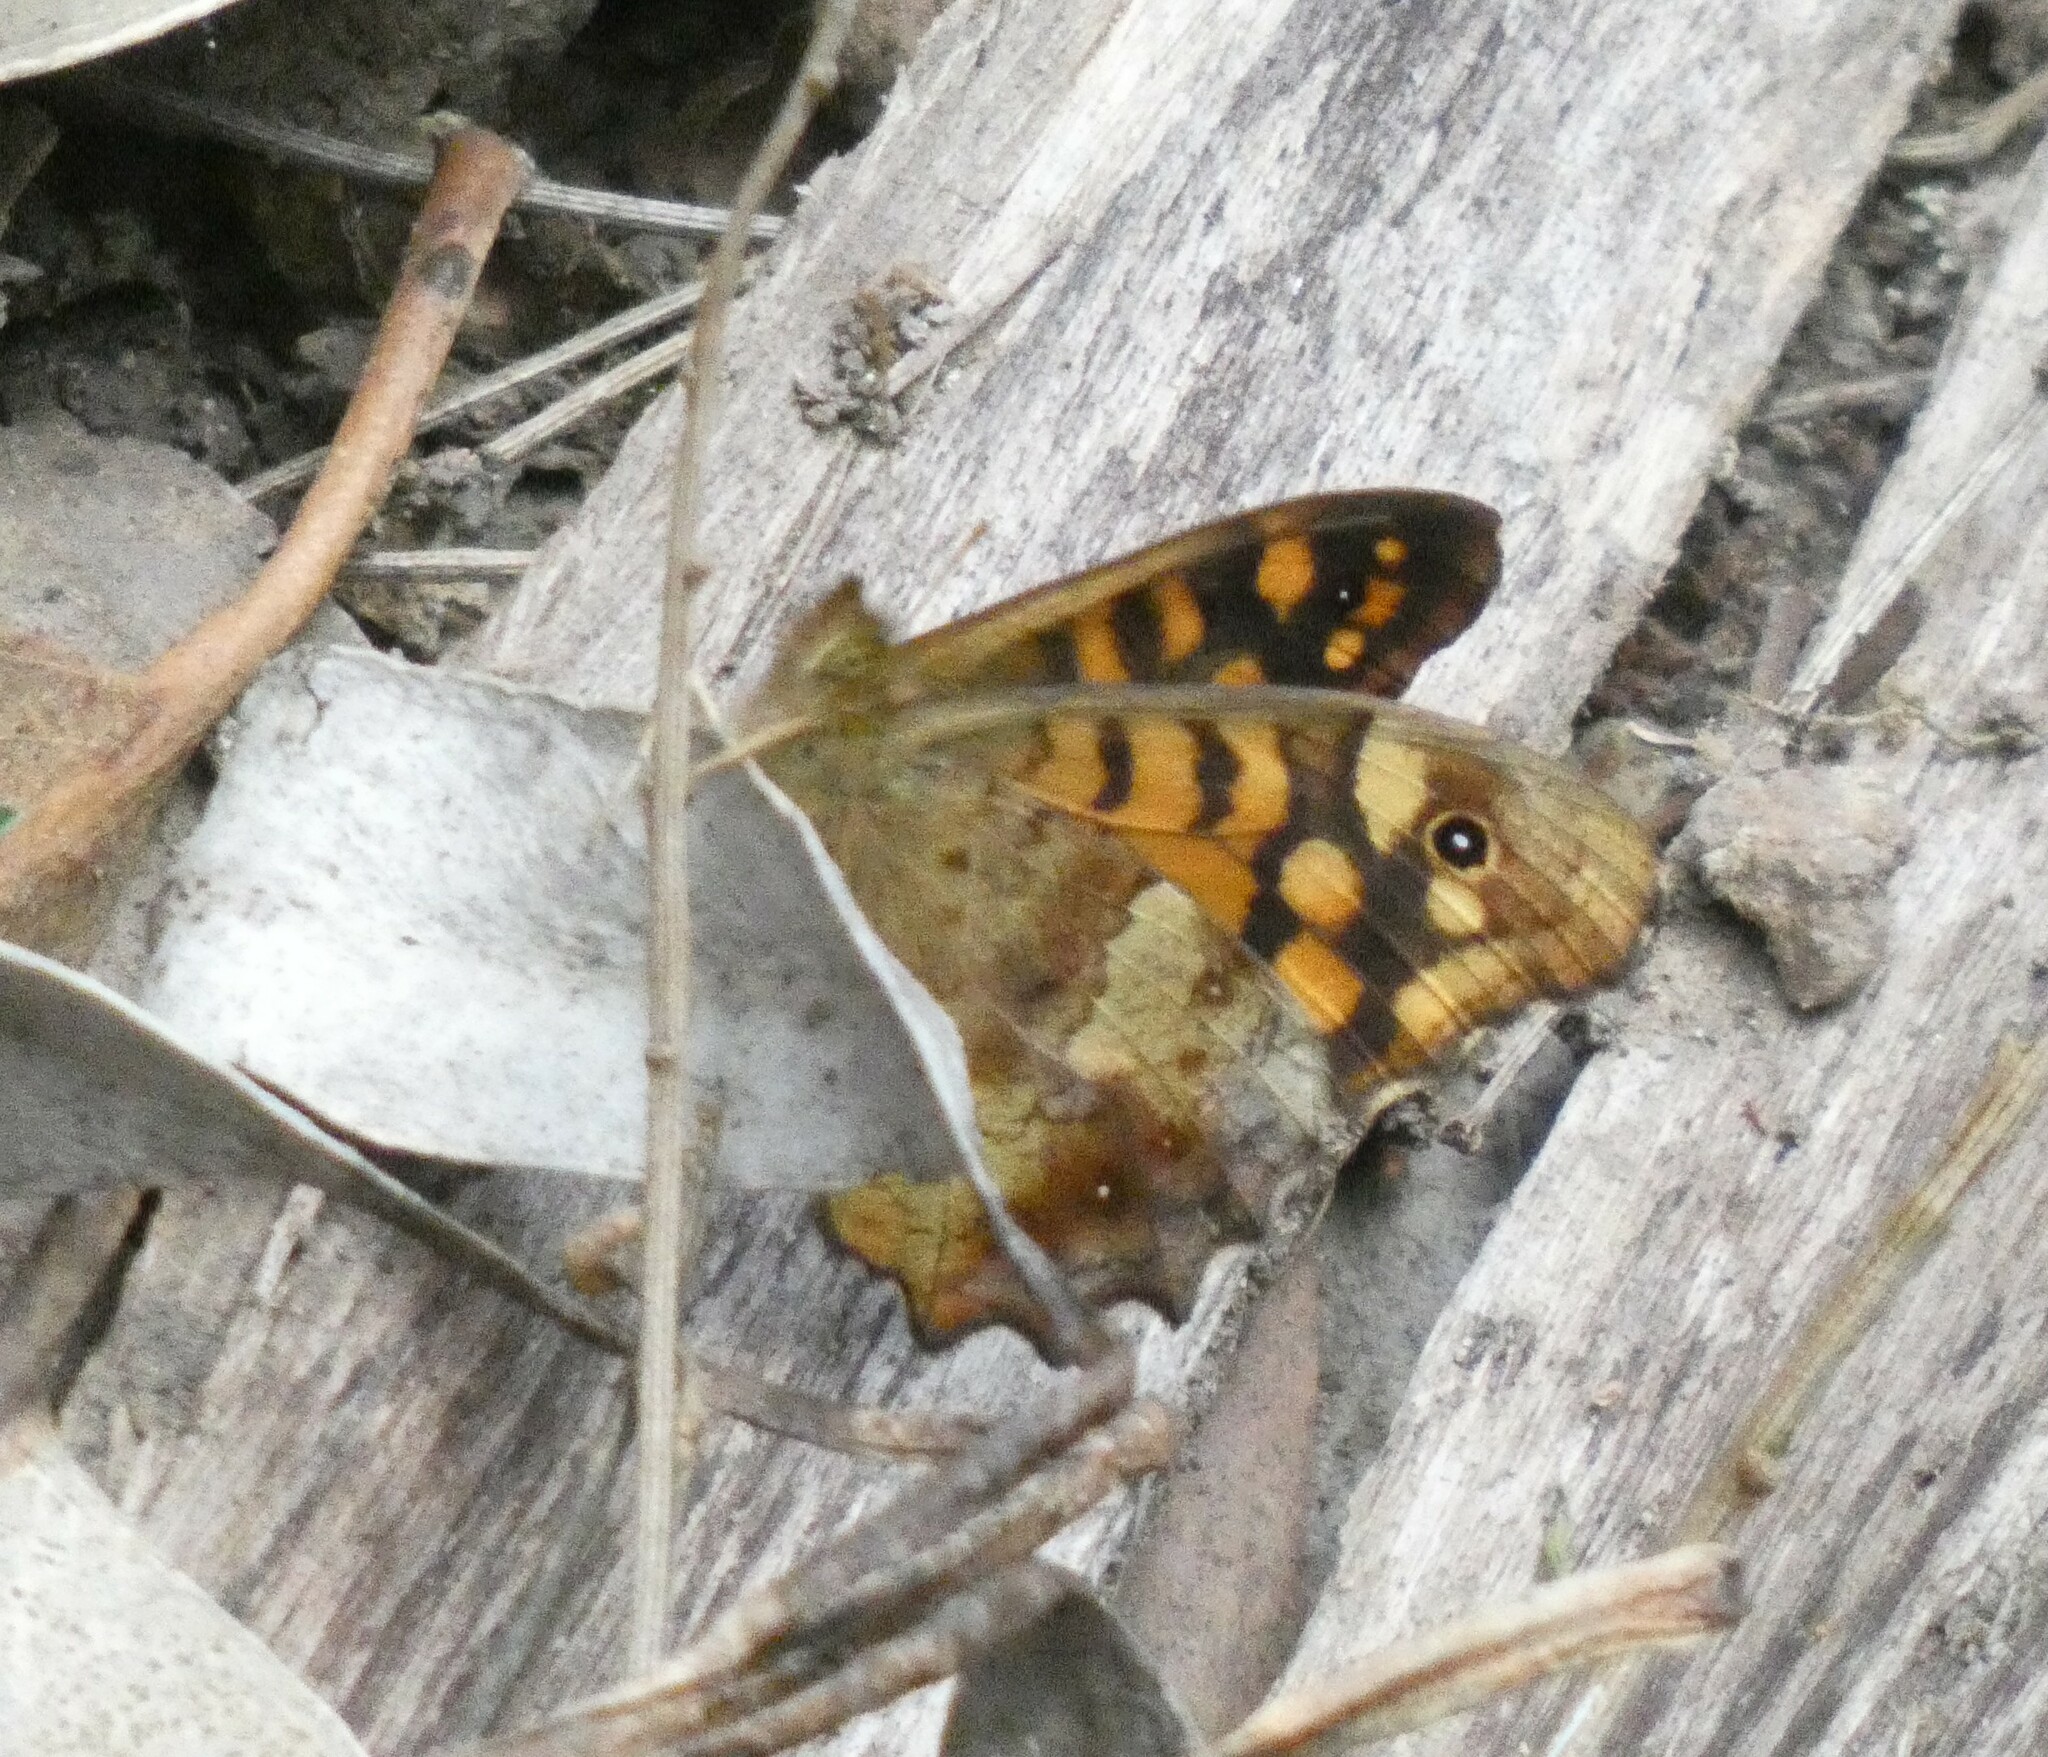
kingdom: Animalia
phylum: Arthropoda
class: Insecta
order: Lepidoptera
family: Nymphalidae
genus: Pararge
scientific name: Pararge aegeria
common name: Speckled wood
